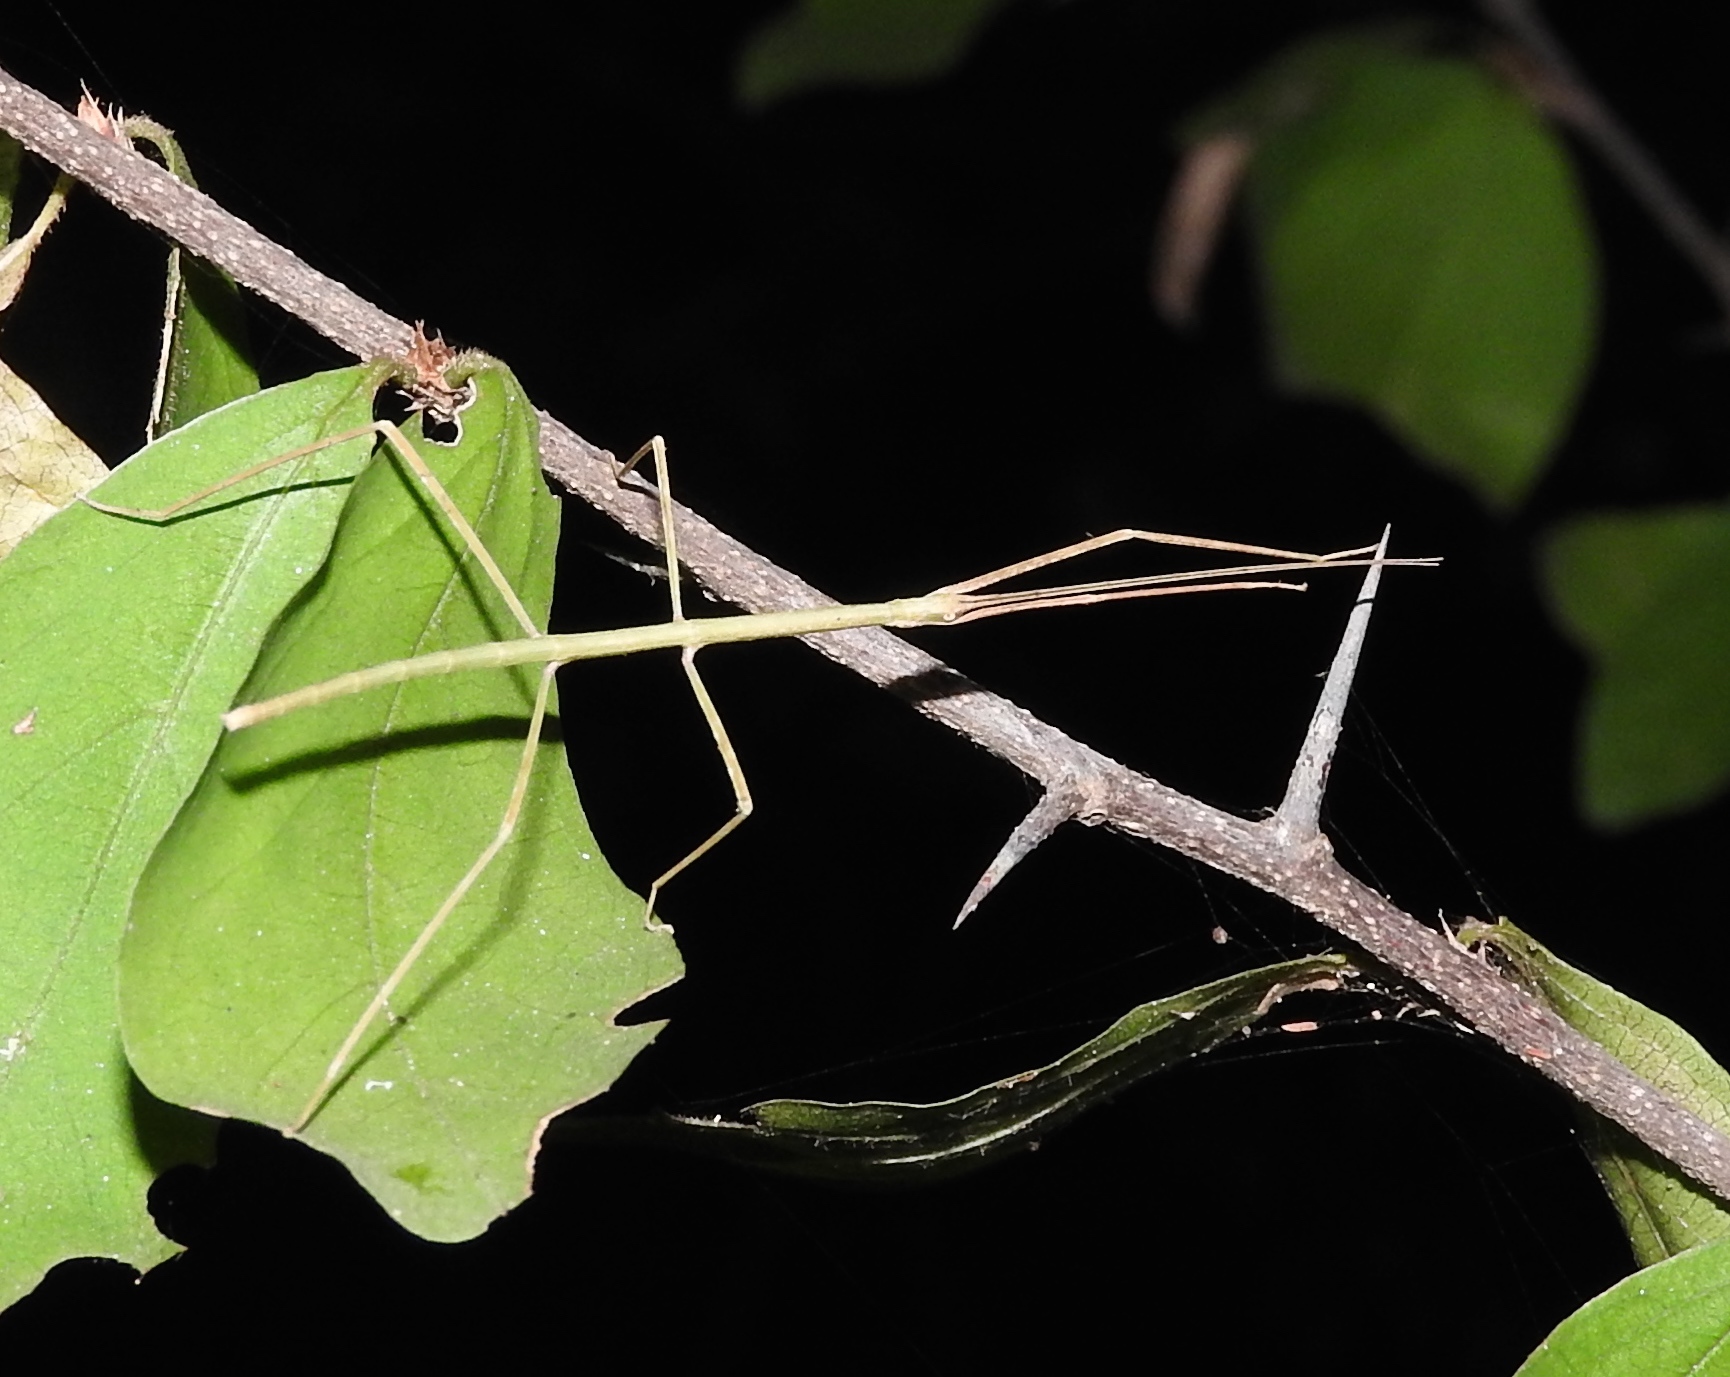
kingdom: Animalia
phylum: Arthropoda
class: Insecta
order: Phasmida
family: Diapheromeridae
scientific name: Diapheromeridae
